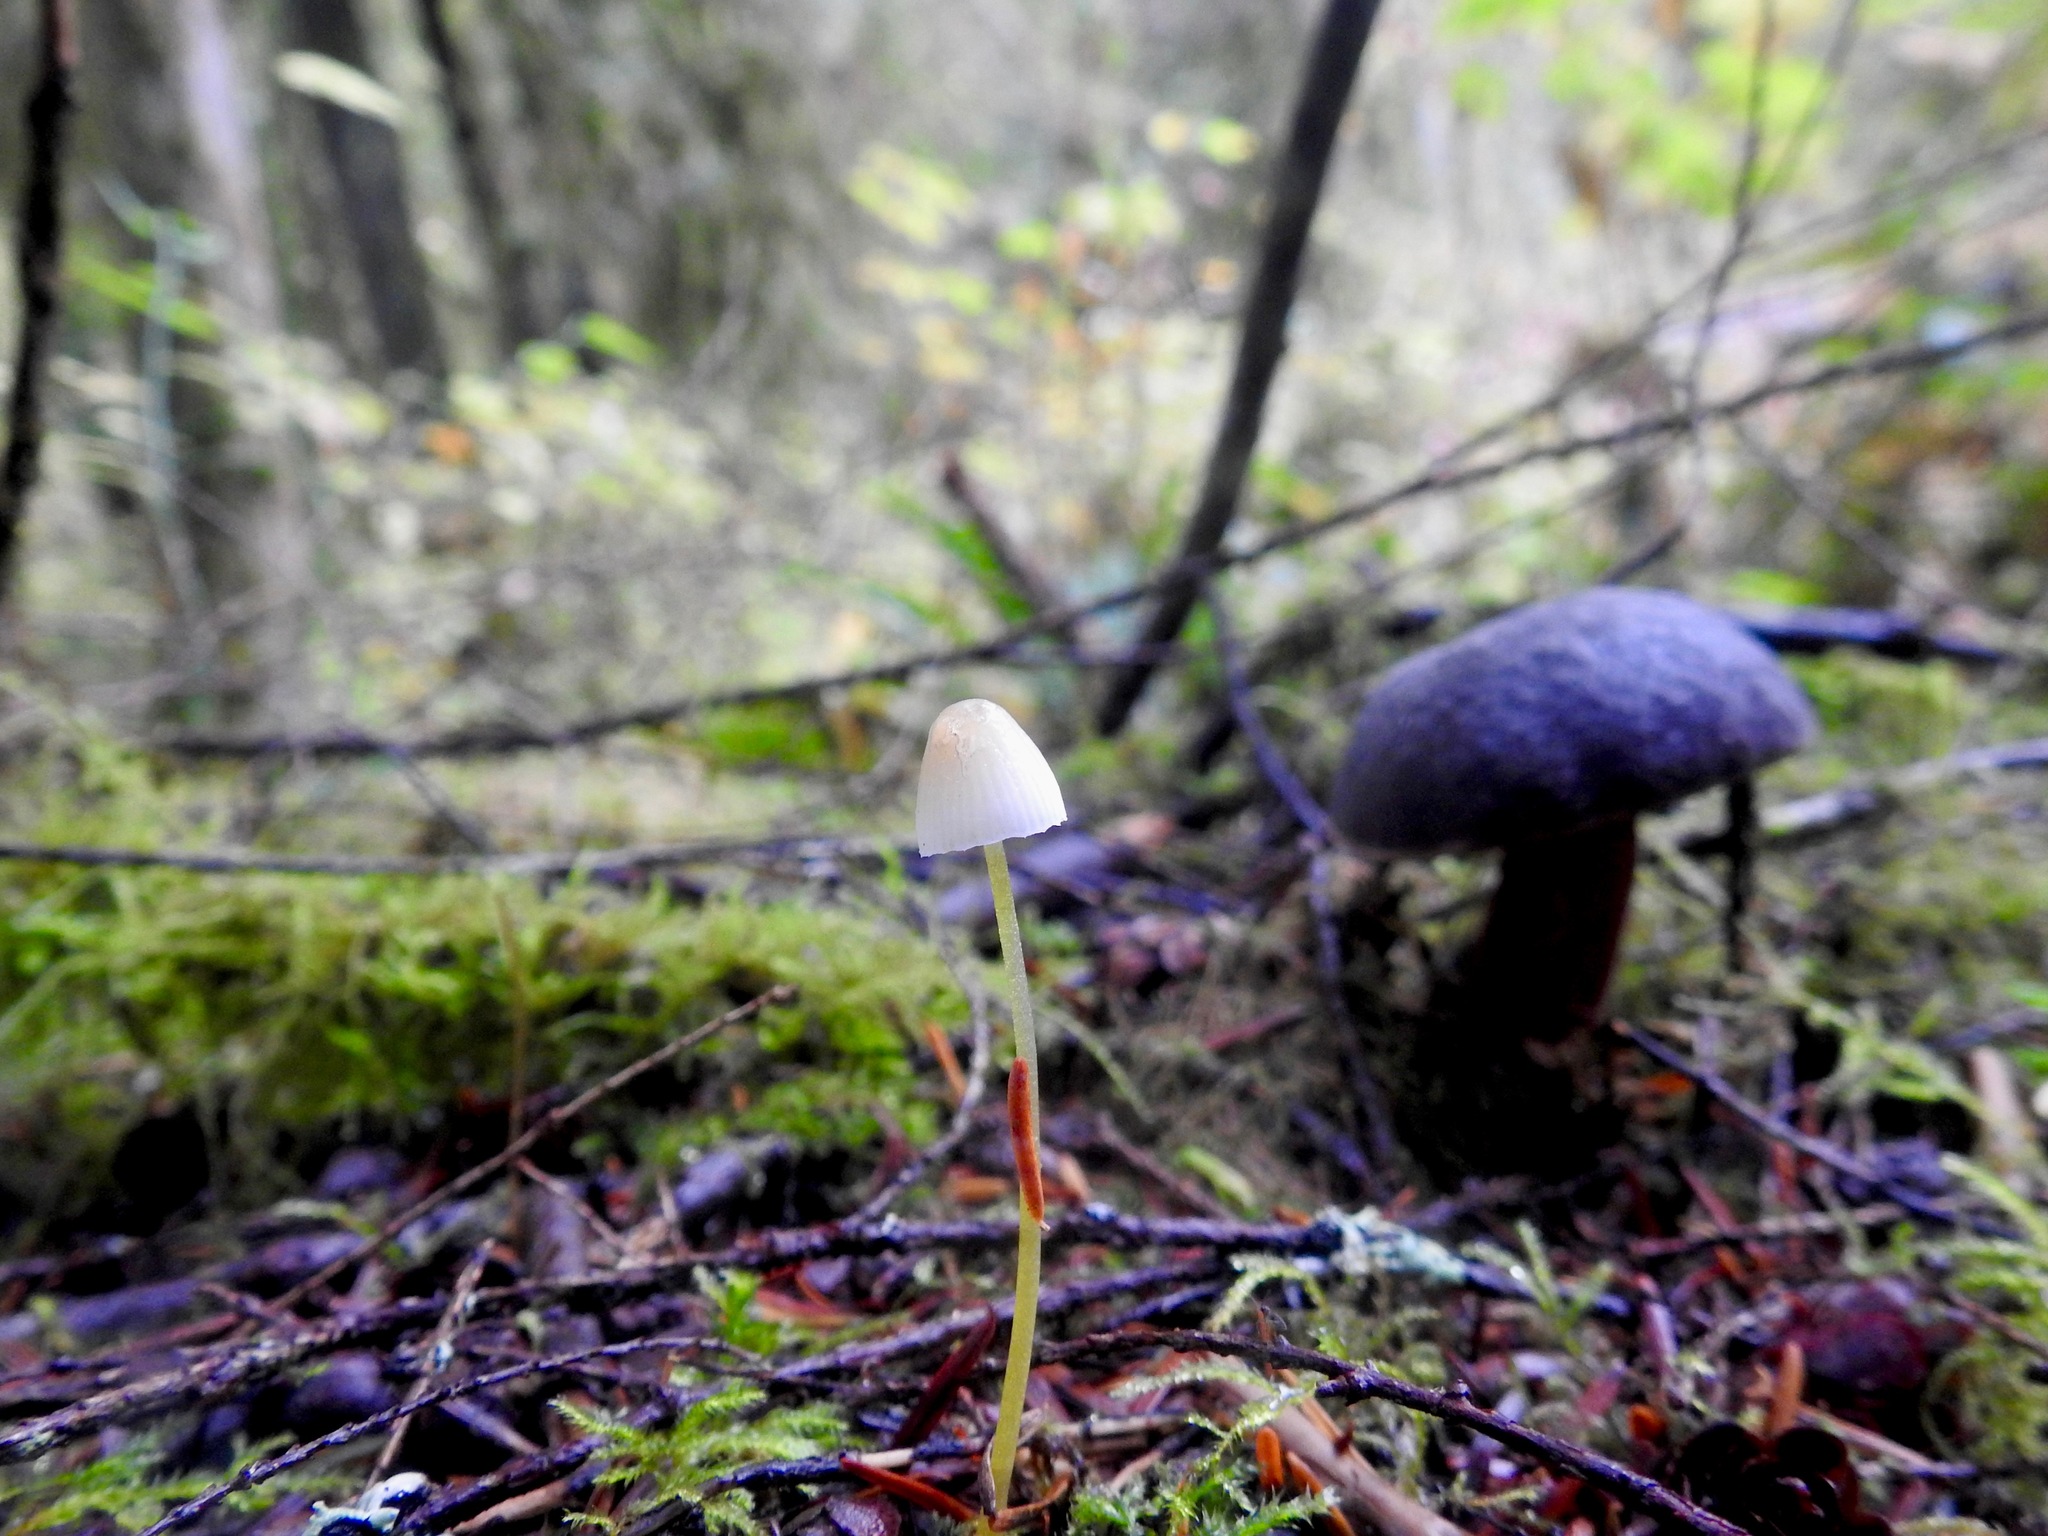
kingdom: Fungi
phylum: Basidiomycota
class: Agaricomycetes
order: Agaricales
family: Mycenaceae
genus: Mycena
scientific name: Mycena epipterygia
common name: Yellowleg bonnet
